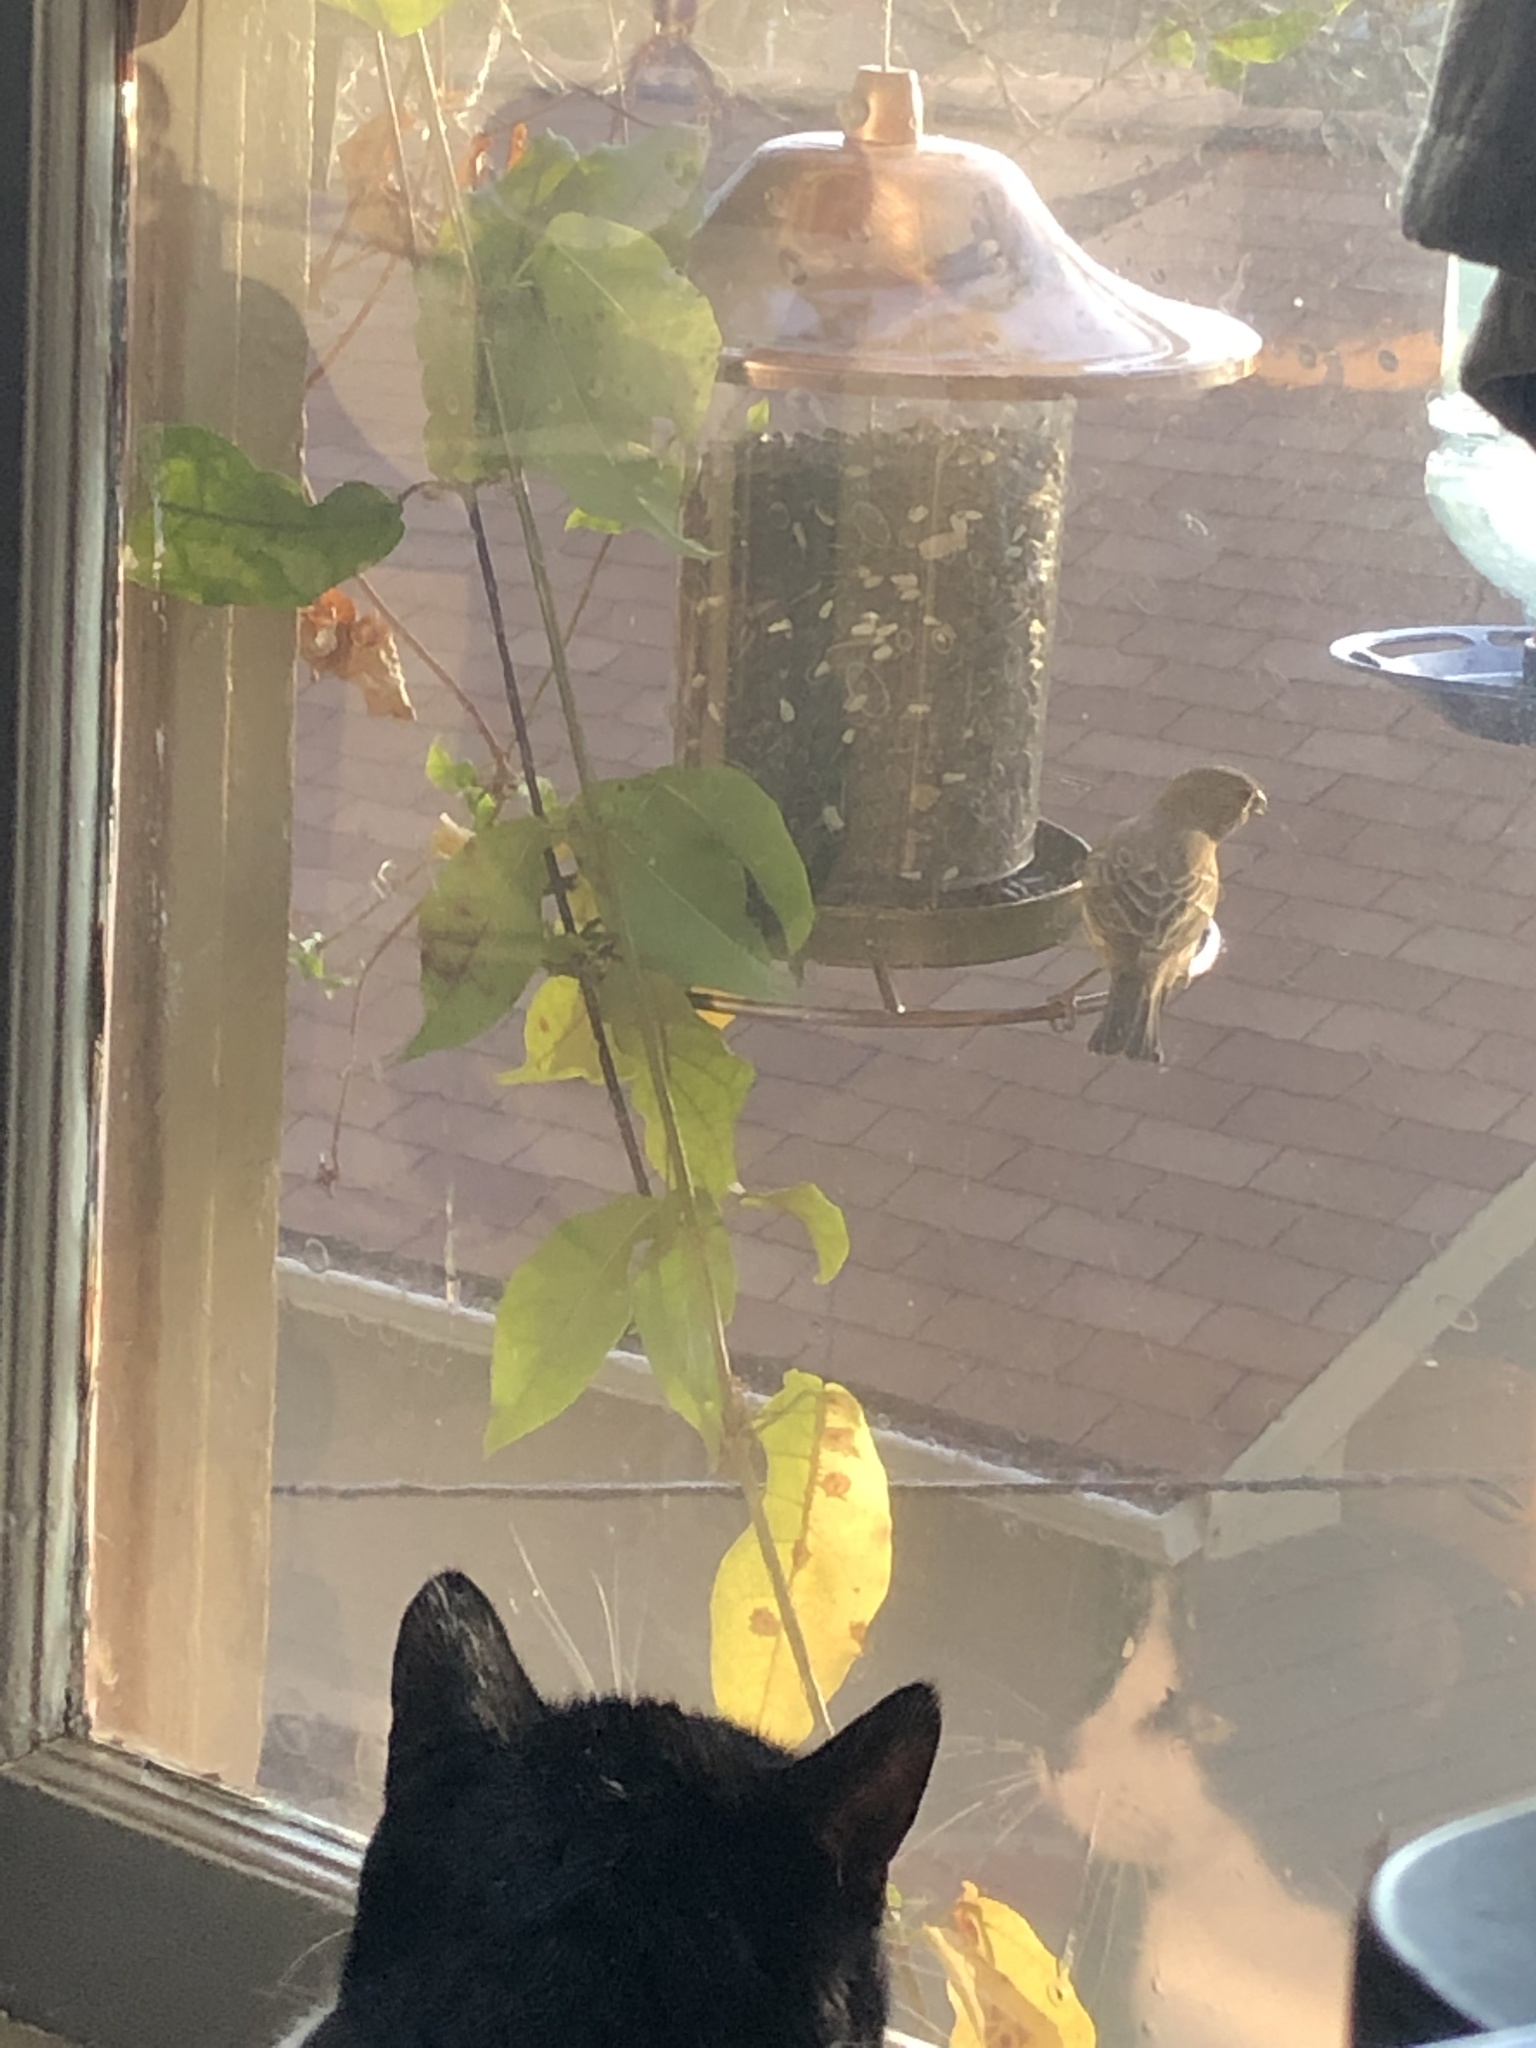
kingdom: Animalia
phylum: Chordata
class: Aves
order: Passeriformes
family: Fringillidae
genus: Haemorhous
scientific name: Haemorhous mexicanus
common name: House finch
